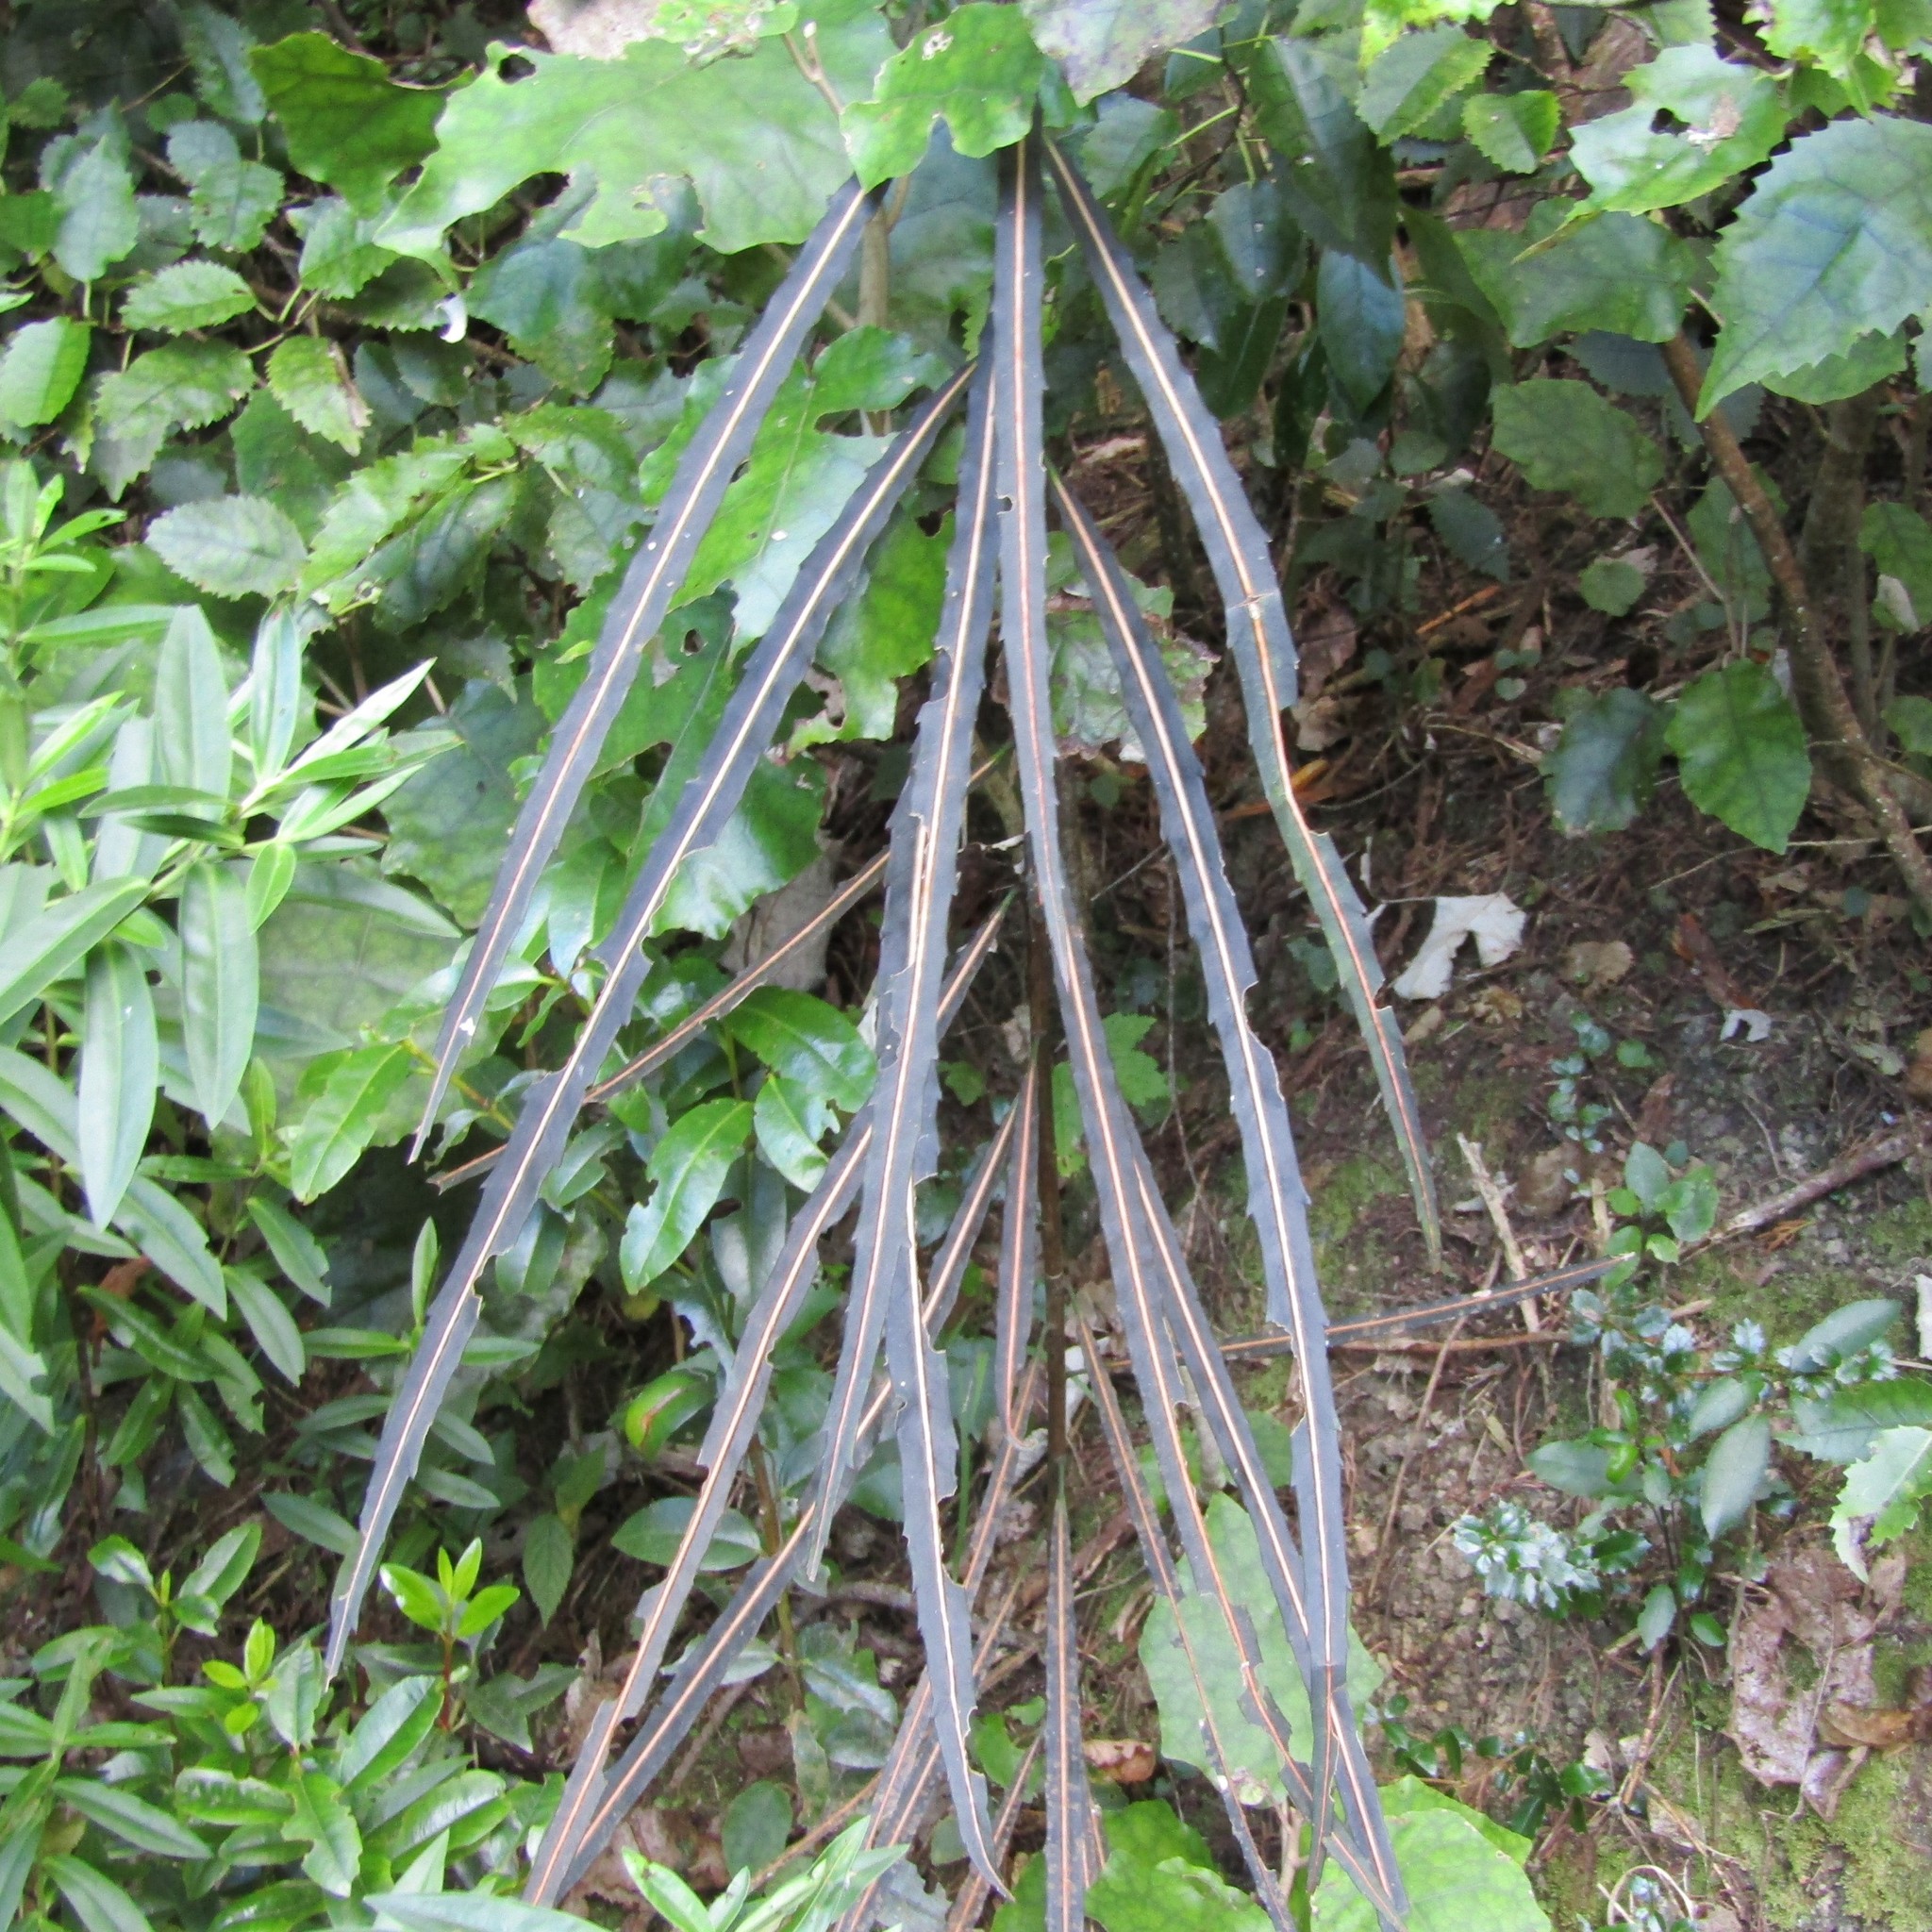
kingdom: Plantae
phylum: Tracheophyta
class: Magnoliopsida
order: Apiales
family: Araliaceae
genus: Pseudopanax
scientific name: Pseudopanax crassifolius
